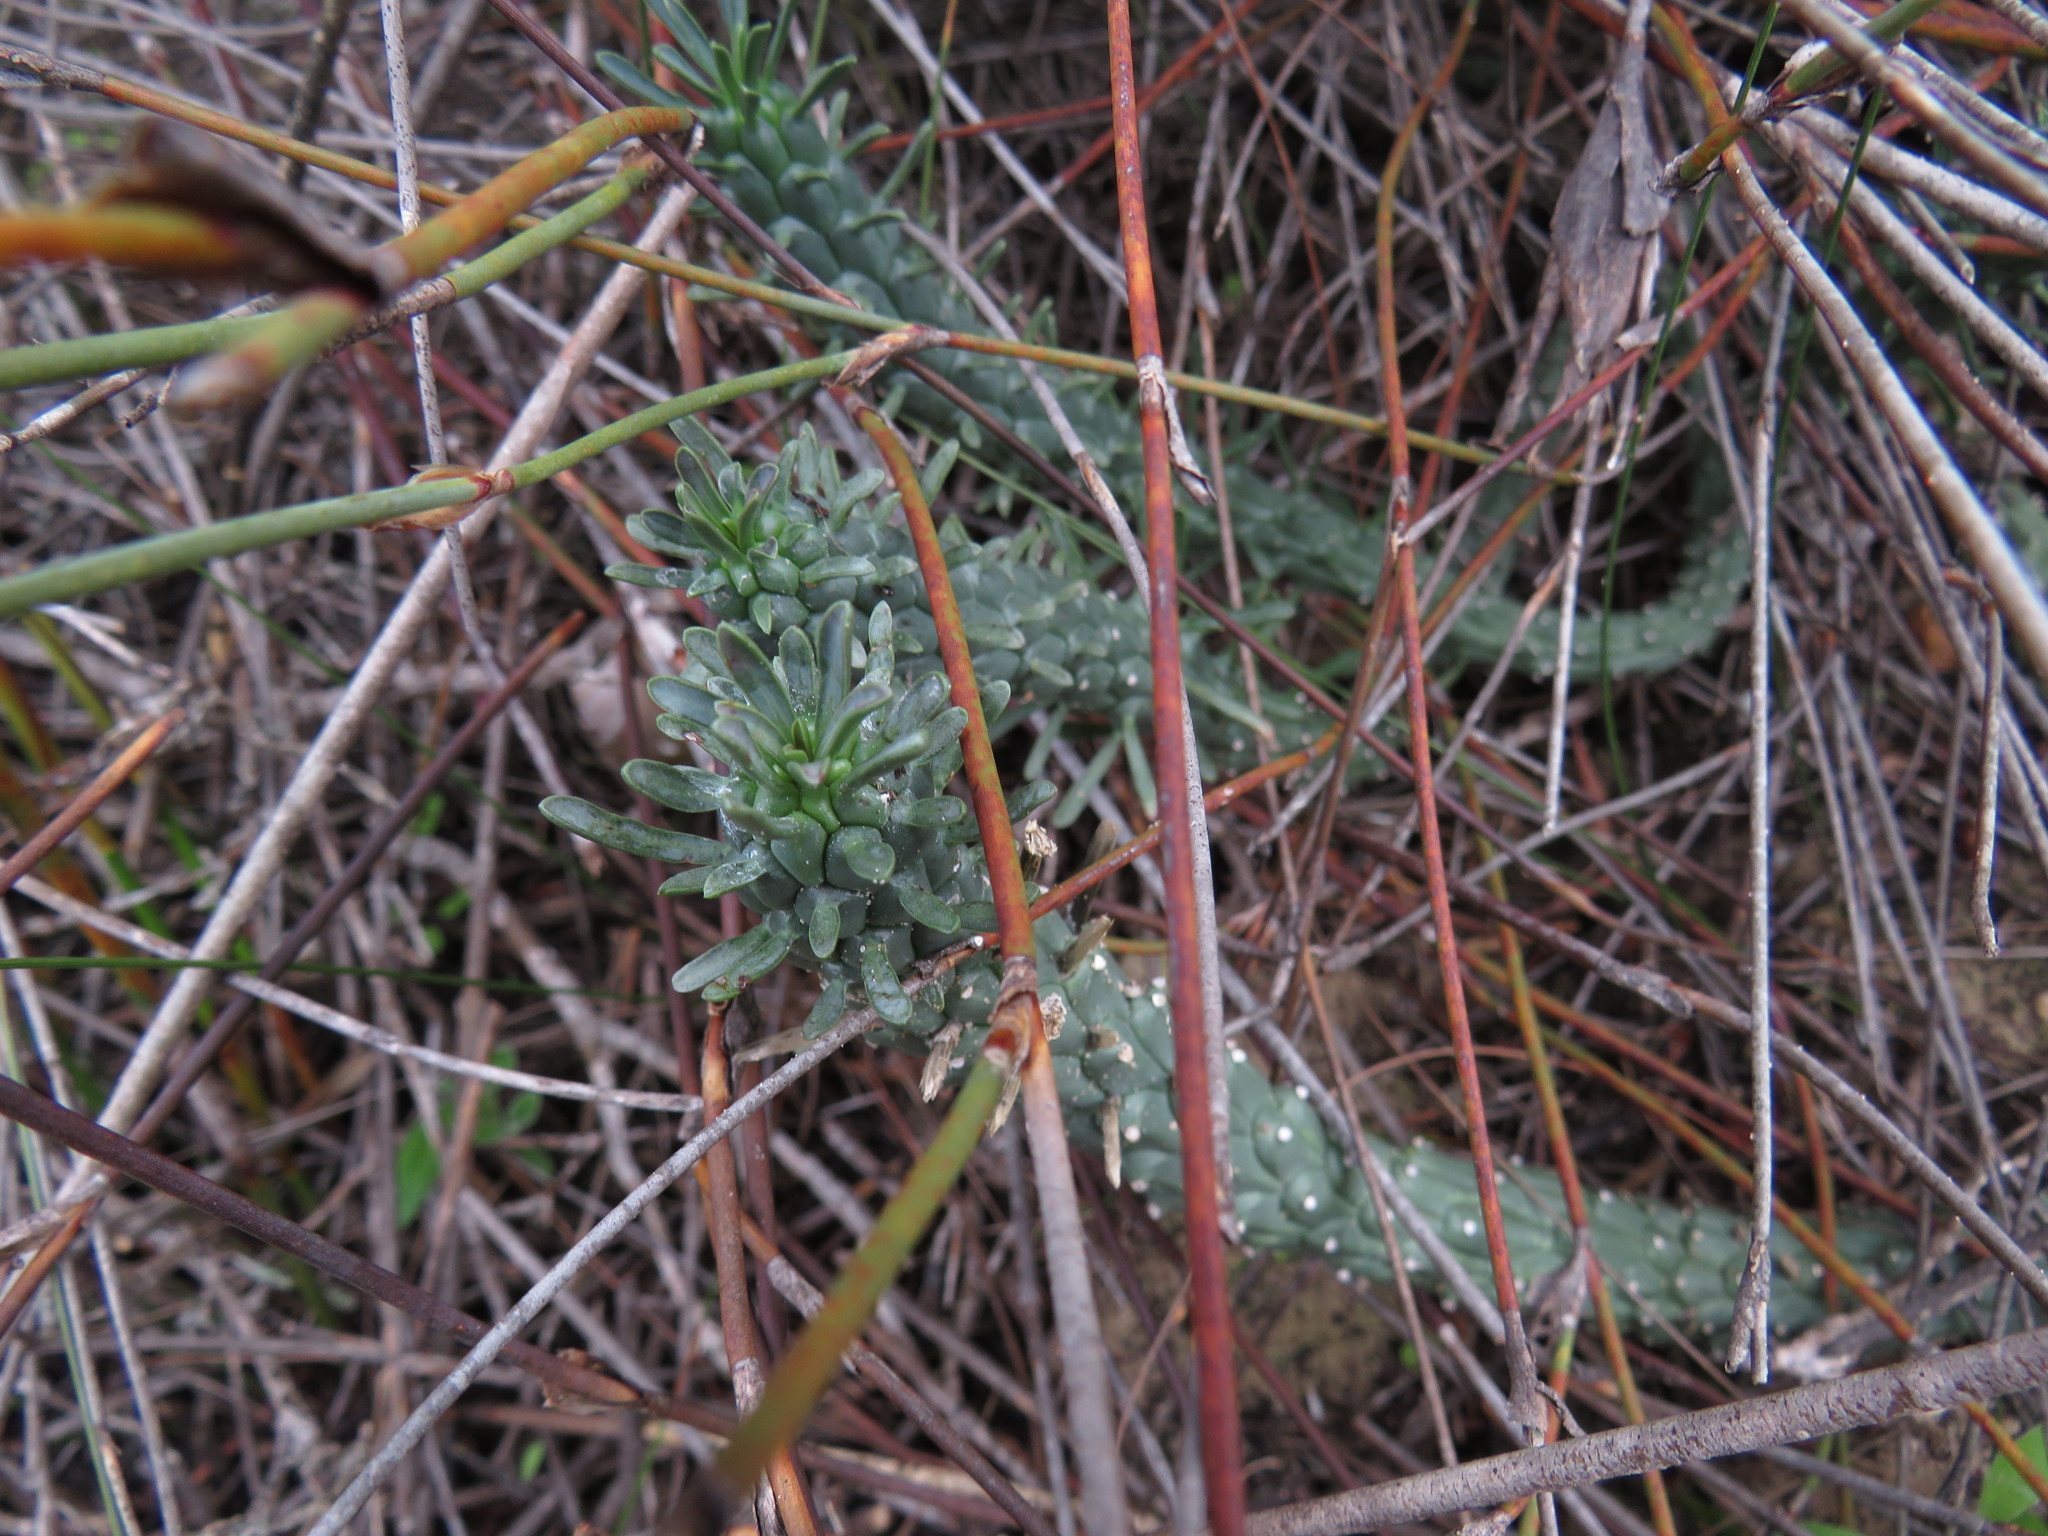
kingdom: Plantae
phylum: Tracheophyta
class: Magnoliopsida
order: Malpighiales
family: Euphorbiaceae
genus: Euphorbia
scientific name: Euphorbia caput-medusae
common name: Medusa's-head
